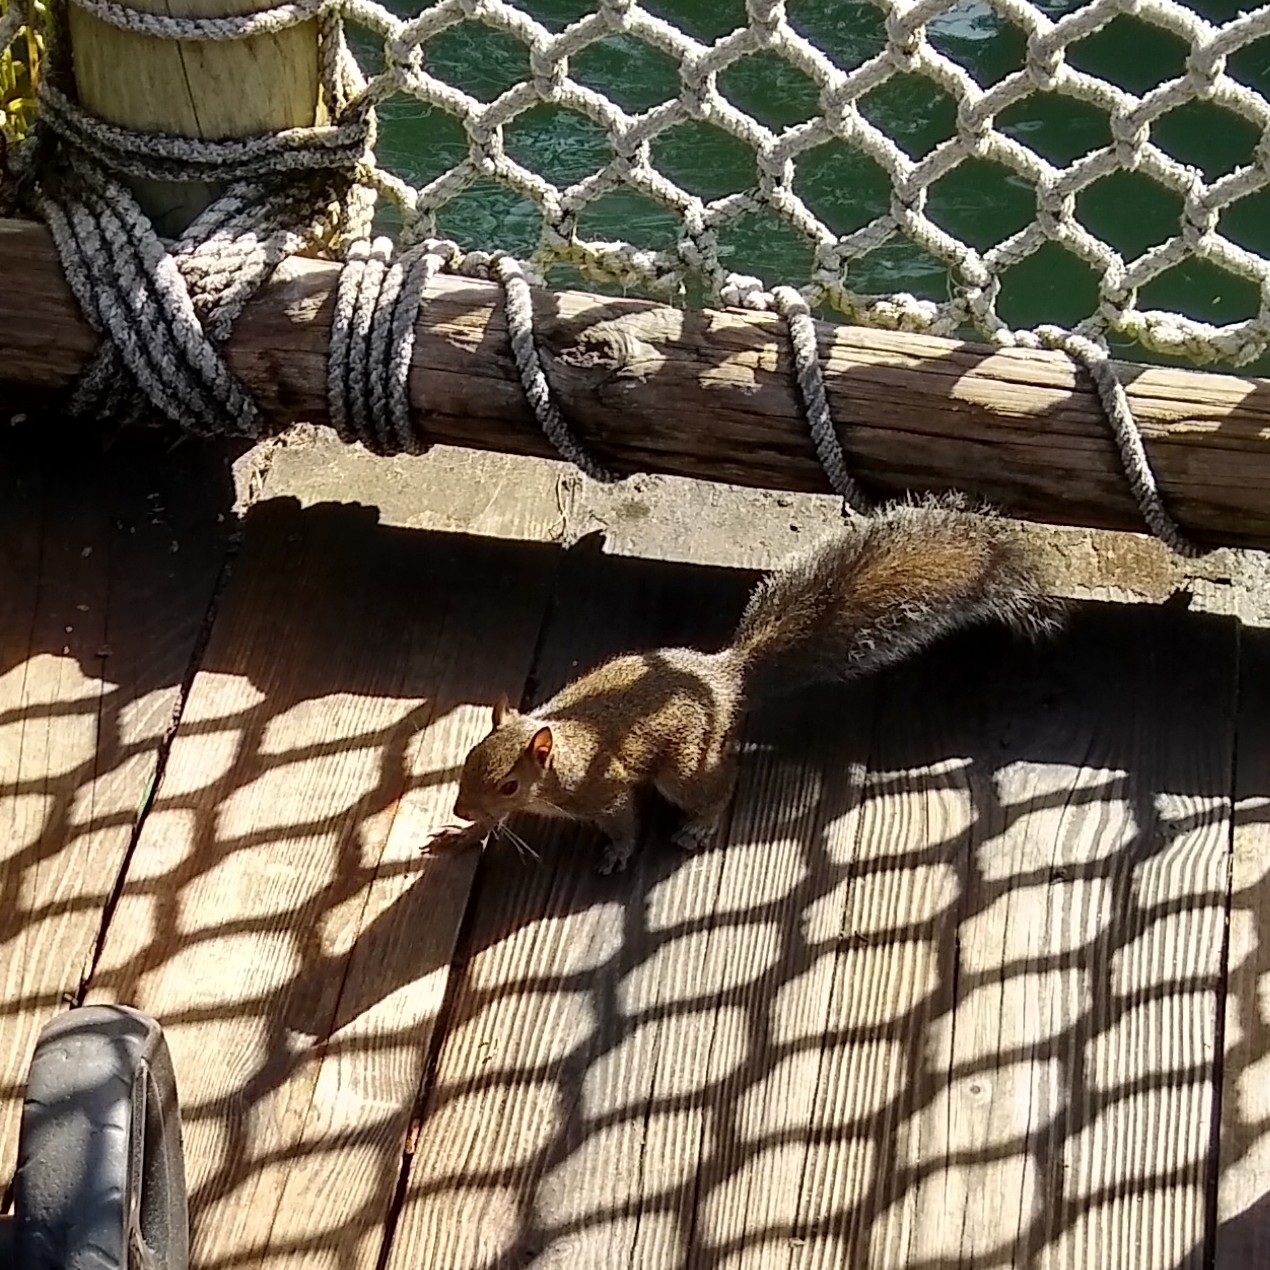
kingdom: Animalia
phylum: Chordata
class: Mammalia
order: Rodentia
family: Sciuridae
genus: Sciurus
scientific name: Sciurus carolinensis
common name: Eastern gray squirrel
